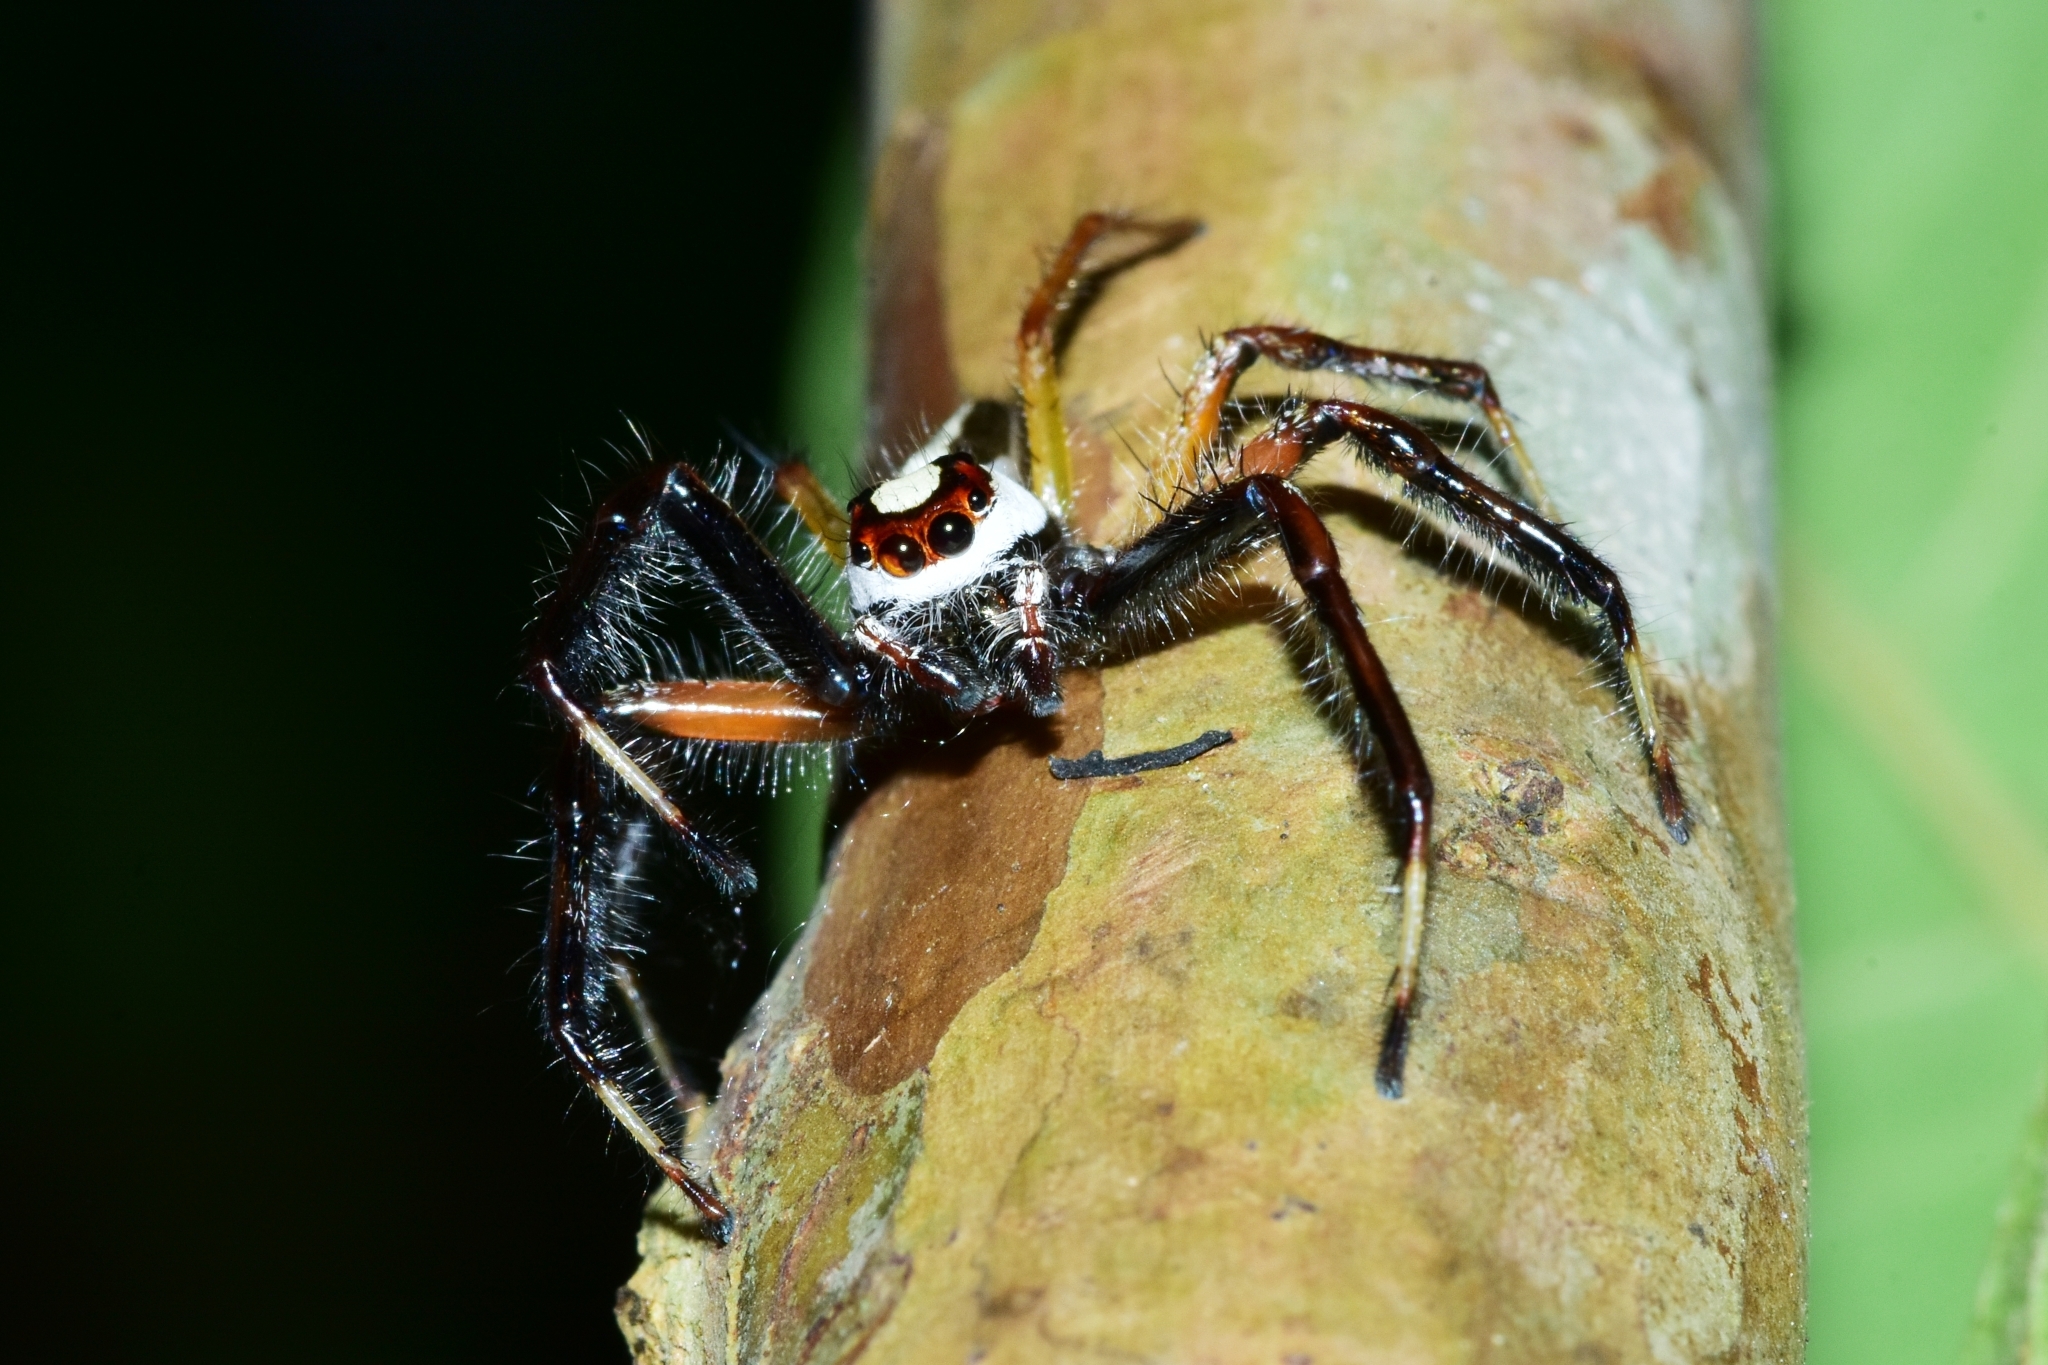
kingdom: Animalia
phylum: Arthropoda
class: Arachnida
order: Araneae
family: Salticidae
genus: Telamonia
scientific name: Telamonia dimidiata
